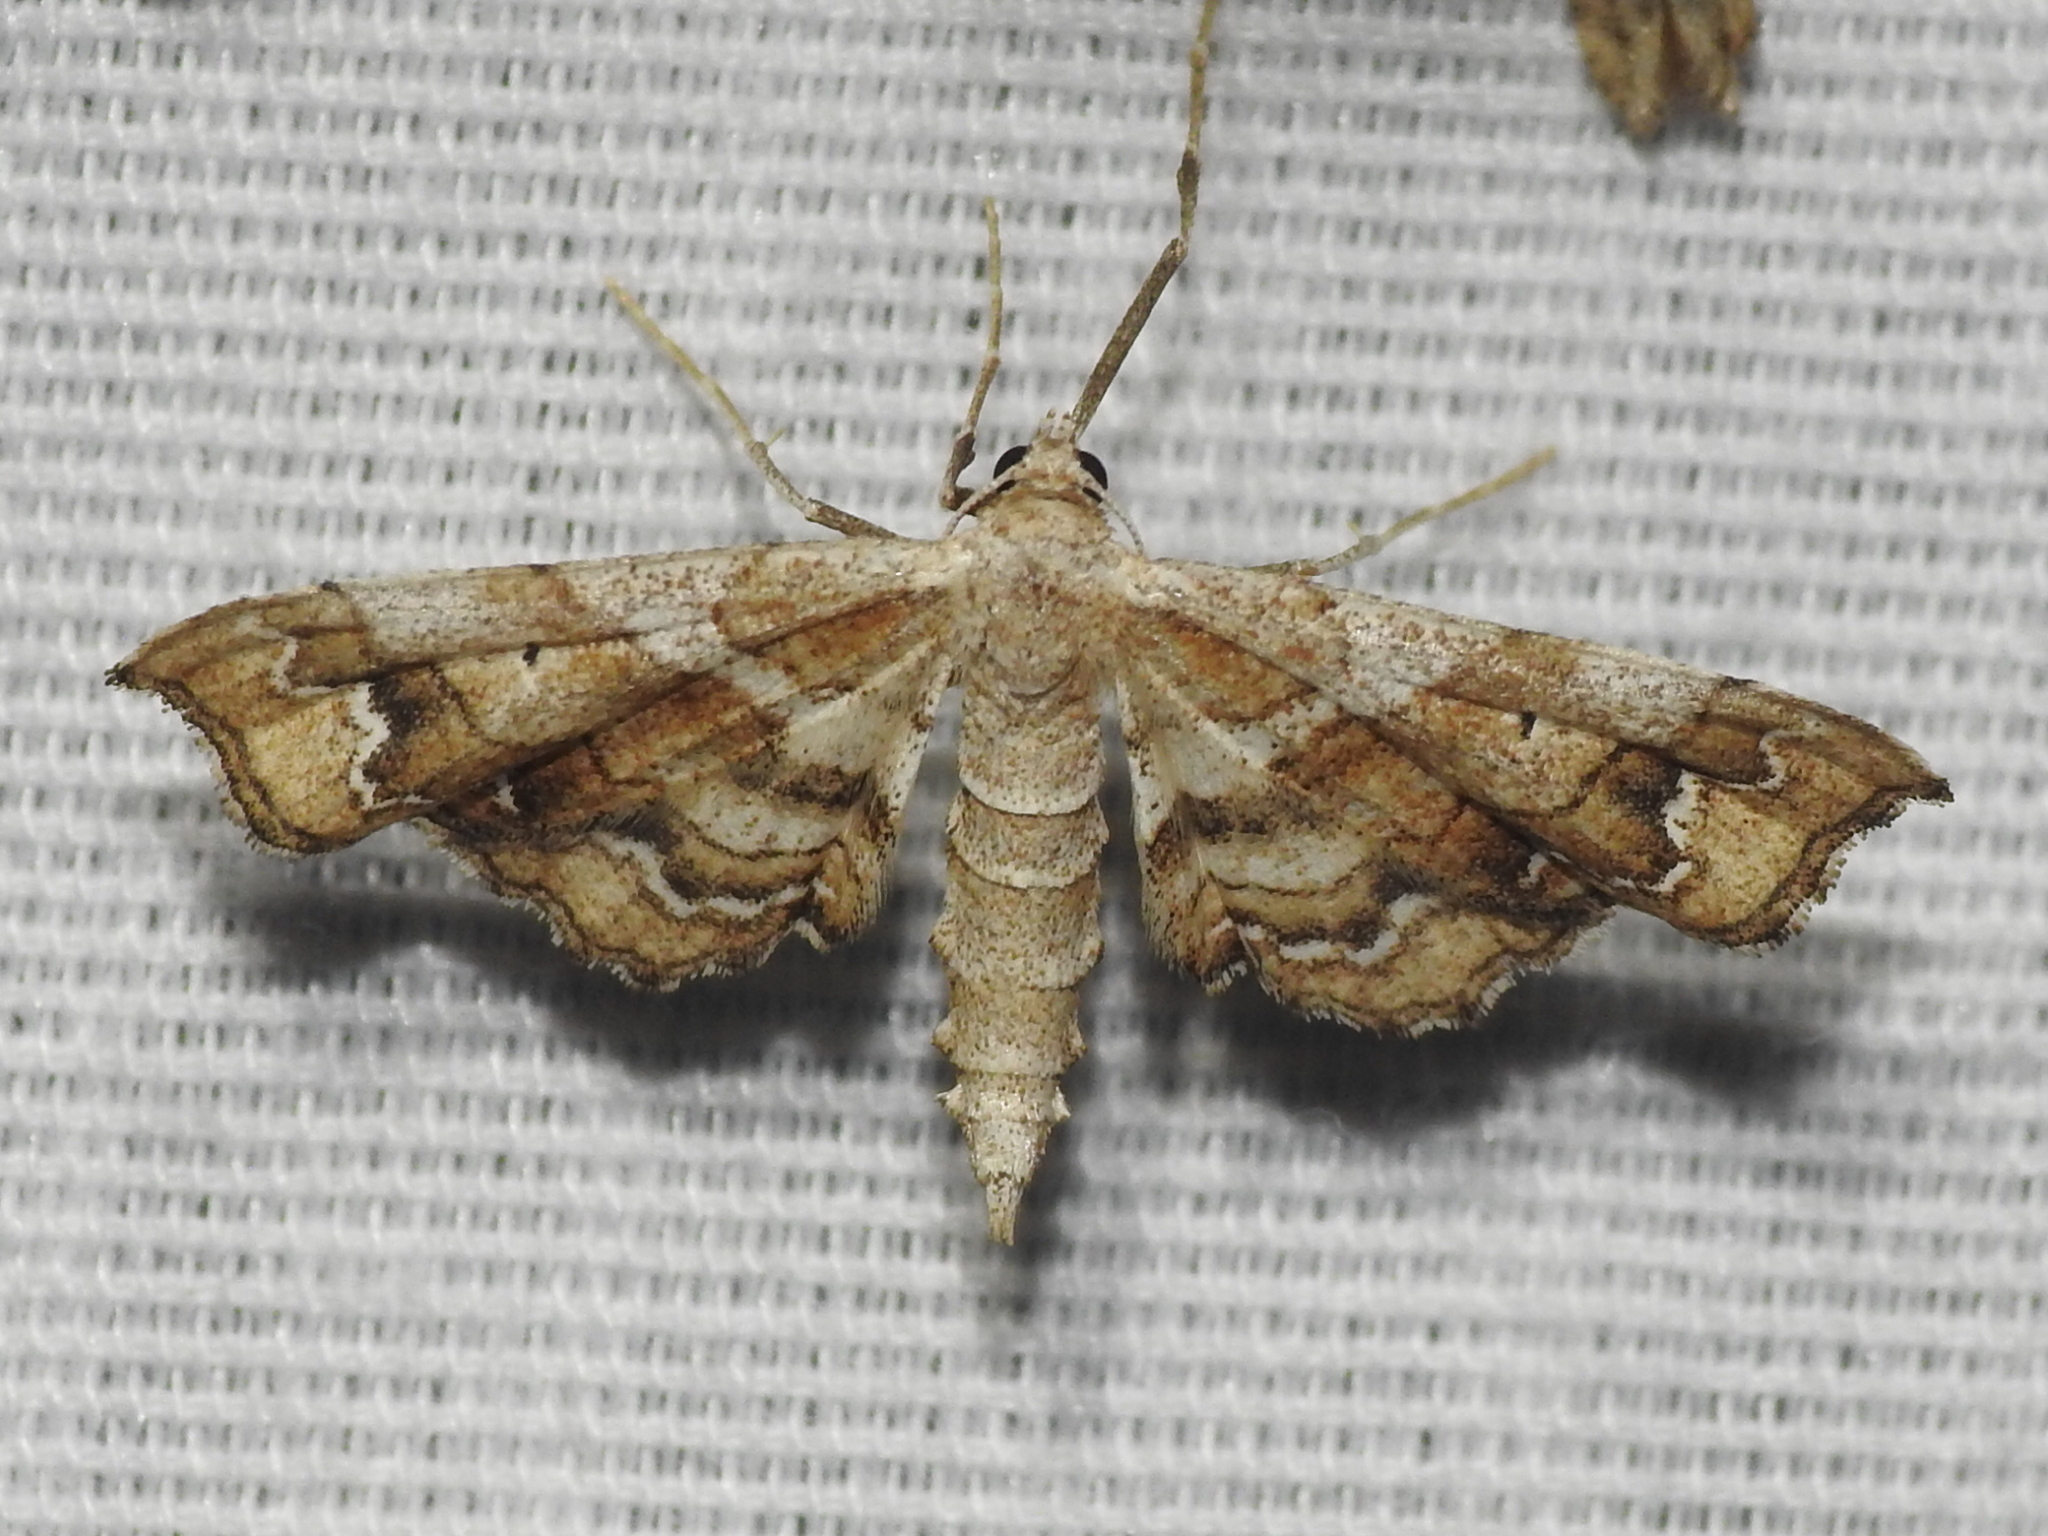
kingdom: Animalia
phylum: Arthropoda
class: Insecta
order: Lepidoptera
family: Geometridae
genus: Odontoptila
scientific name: Odontoptila obrimo
